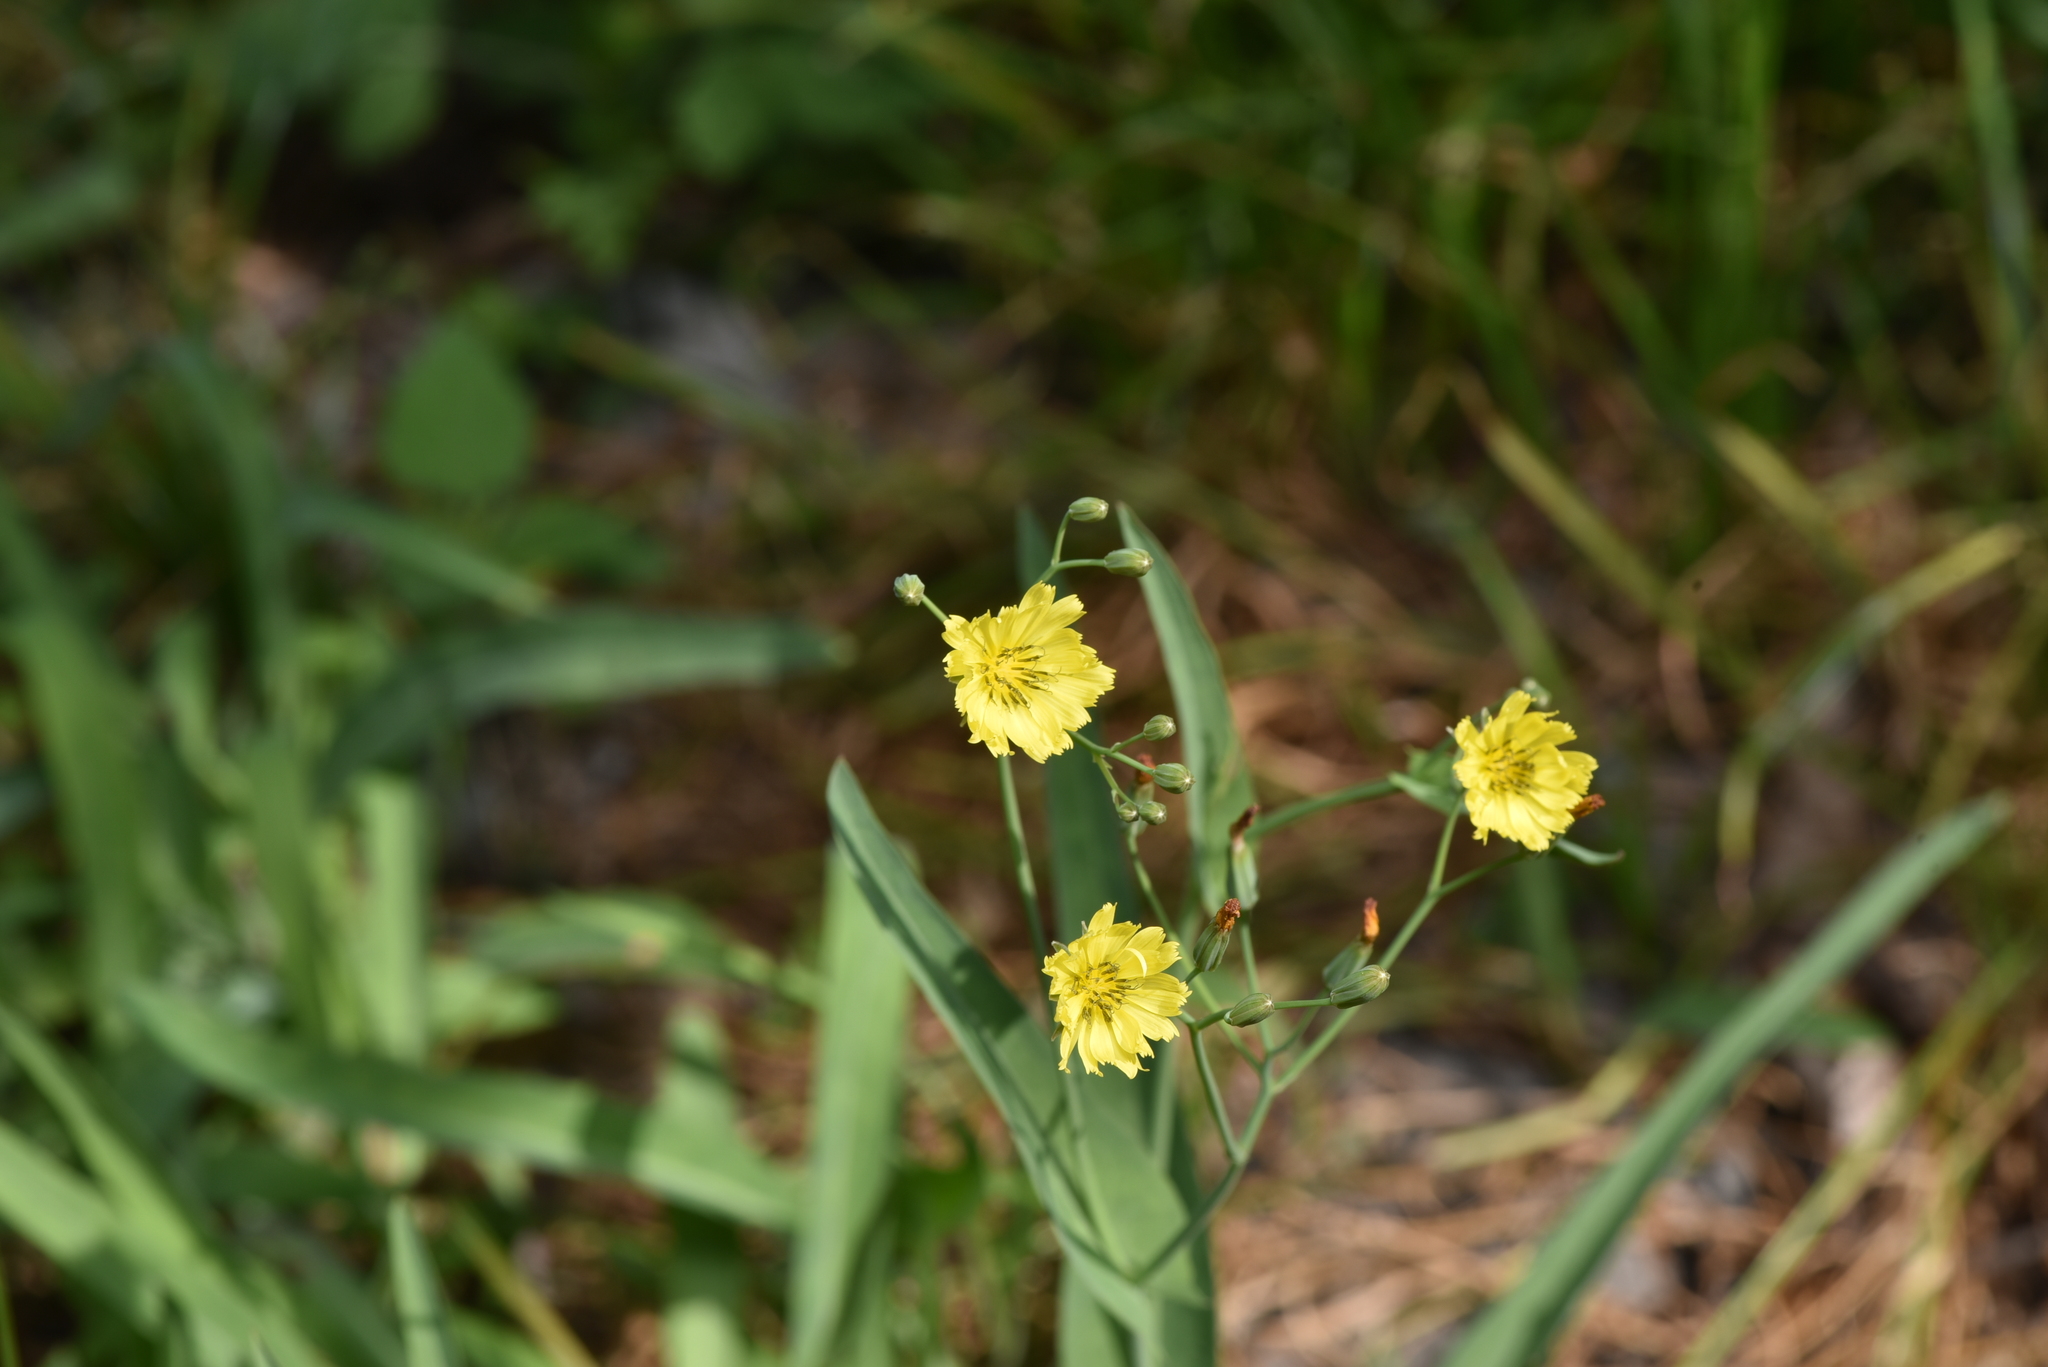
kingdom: Plantae
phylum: Tracheophyta
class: Magnoliopsida
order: Asterales
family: Asteraceae
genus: Ixeris
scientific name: Ixeris chinensis
